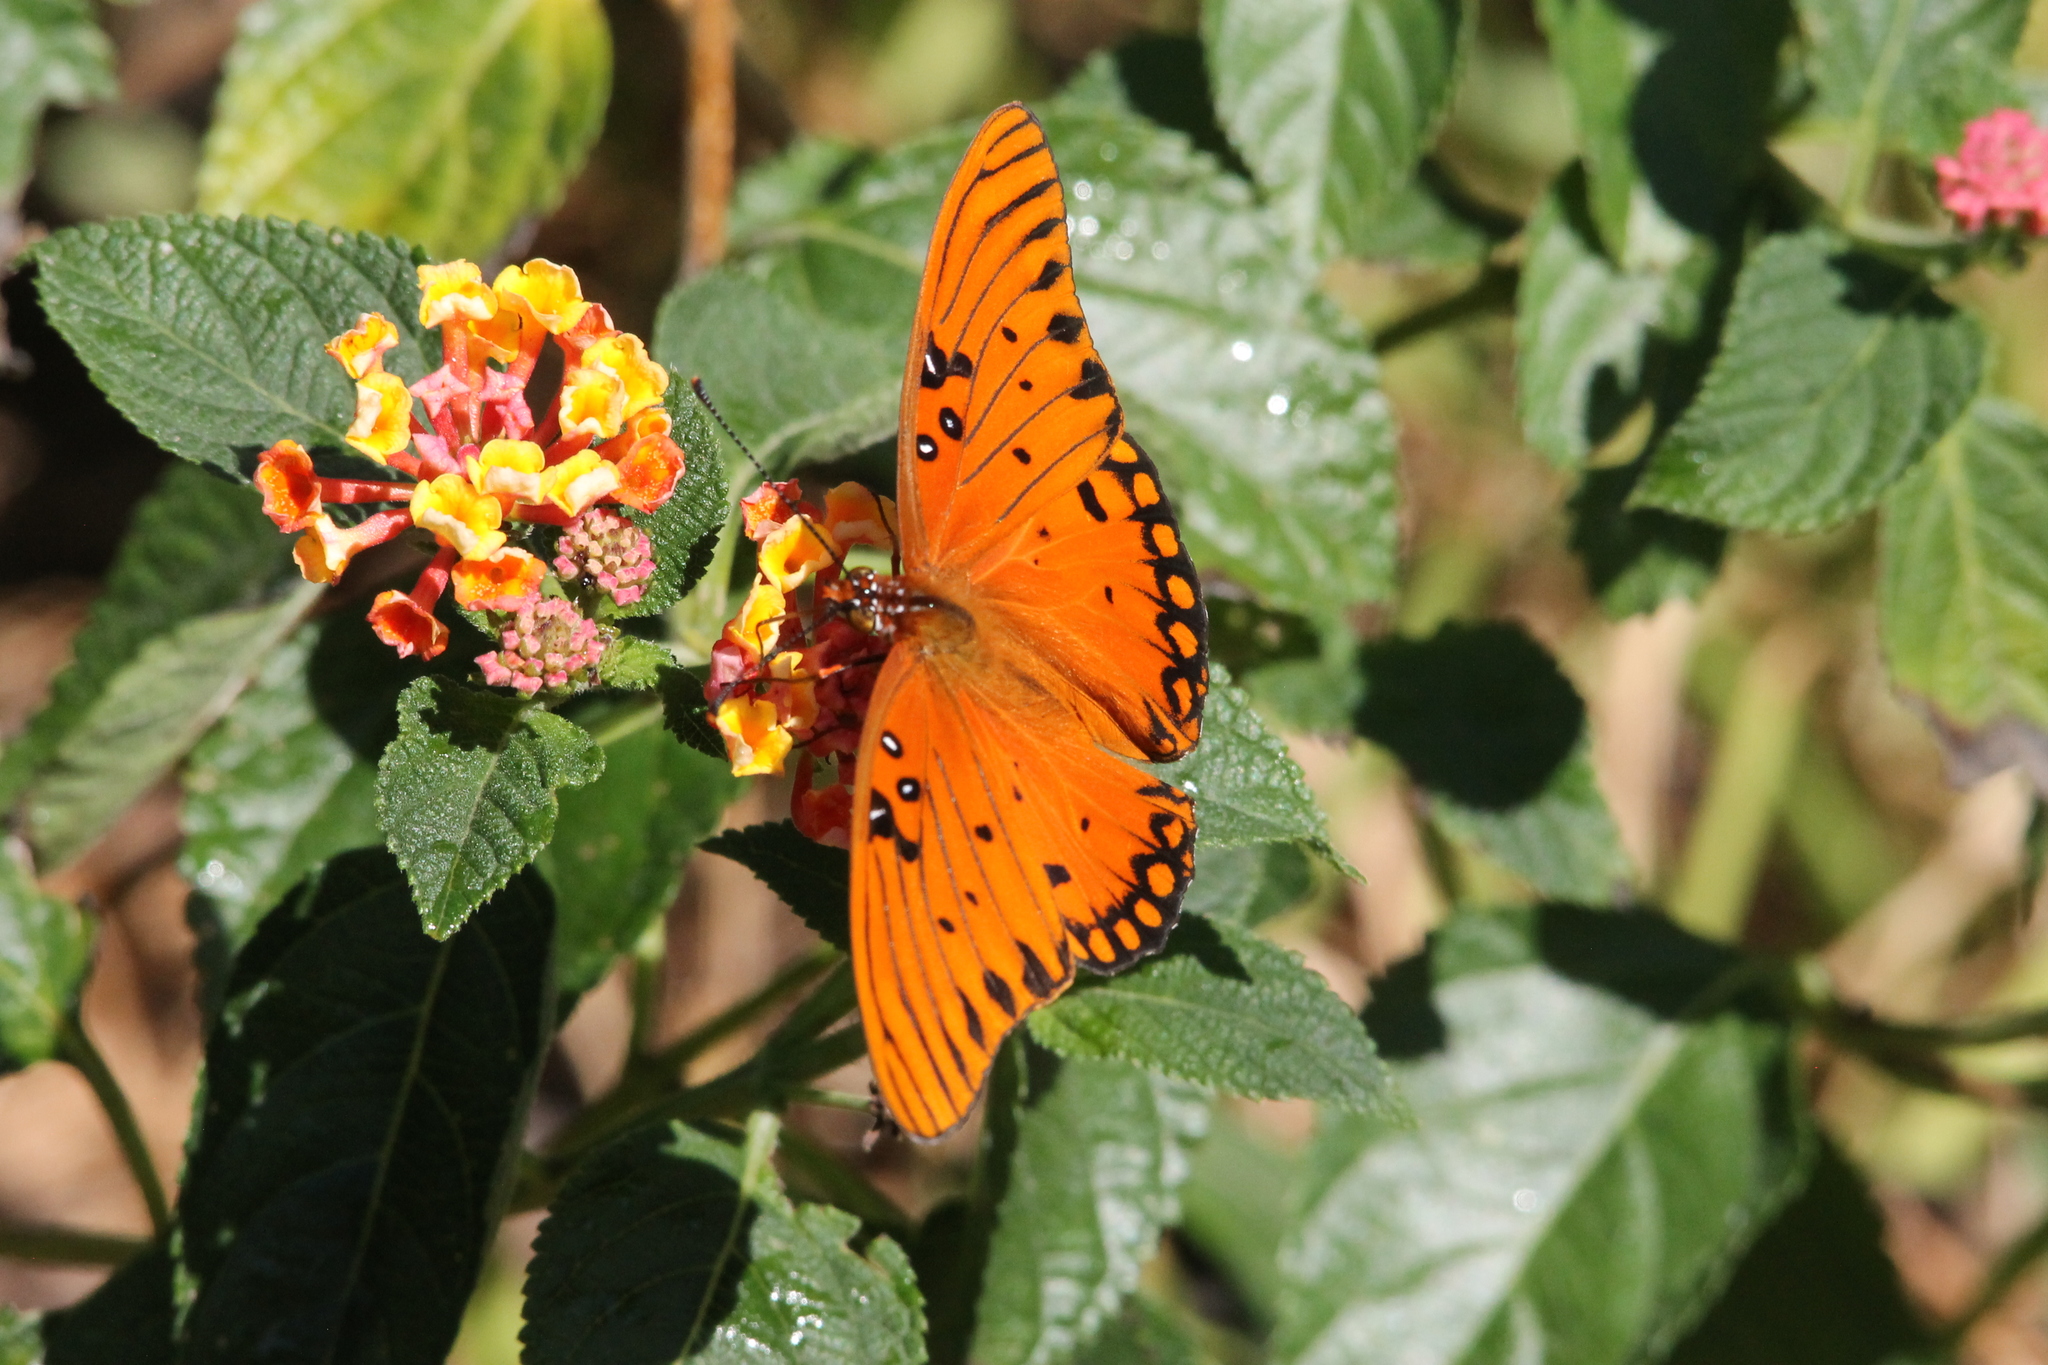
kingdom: Animalia
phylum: Arthropoda
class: Insecta
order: Lepidoptera
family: Nymphalidae
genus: Dione
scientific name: Dione vanillae
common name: Gulf fritillary
